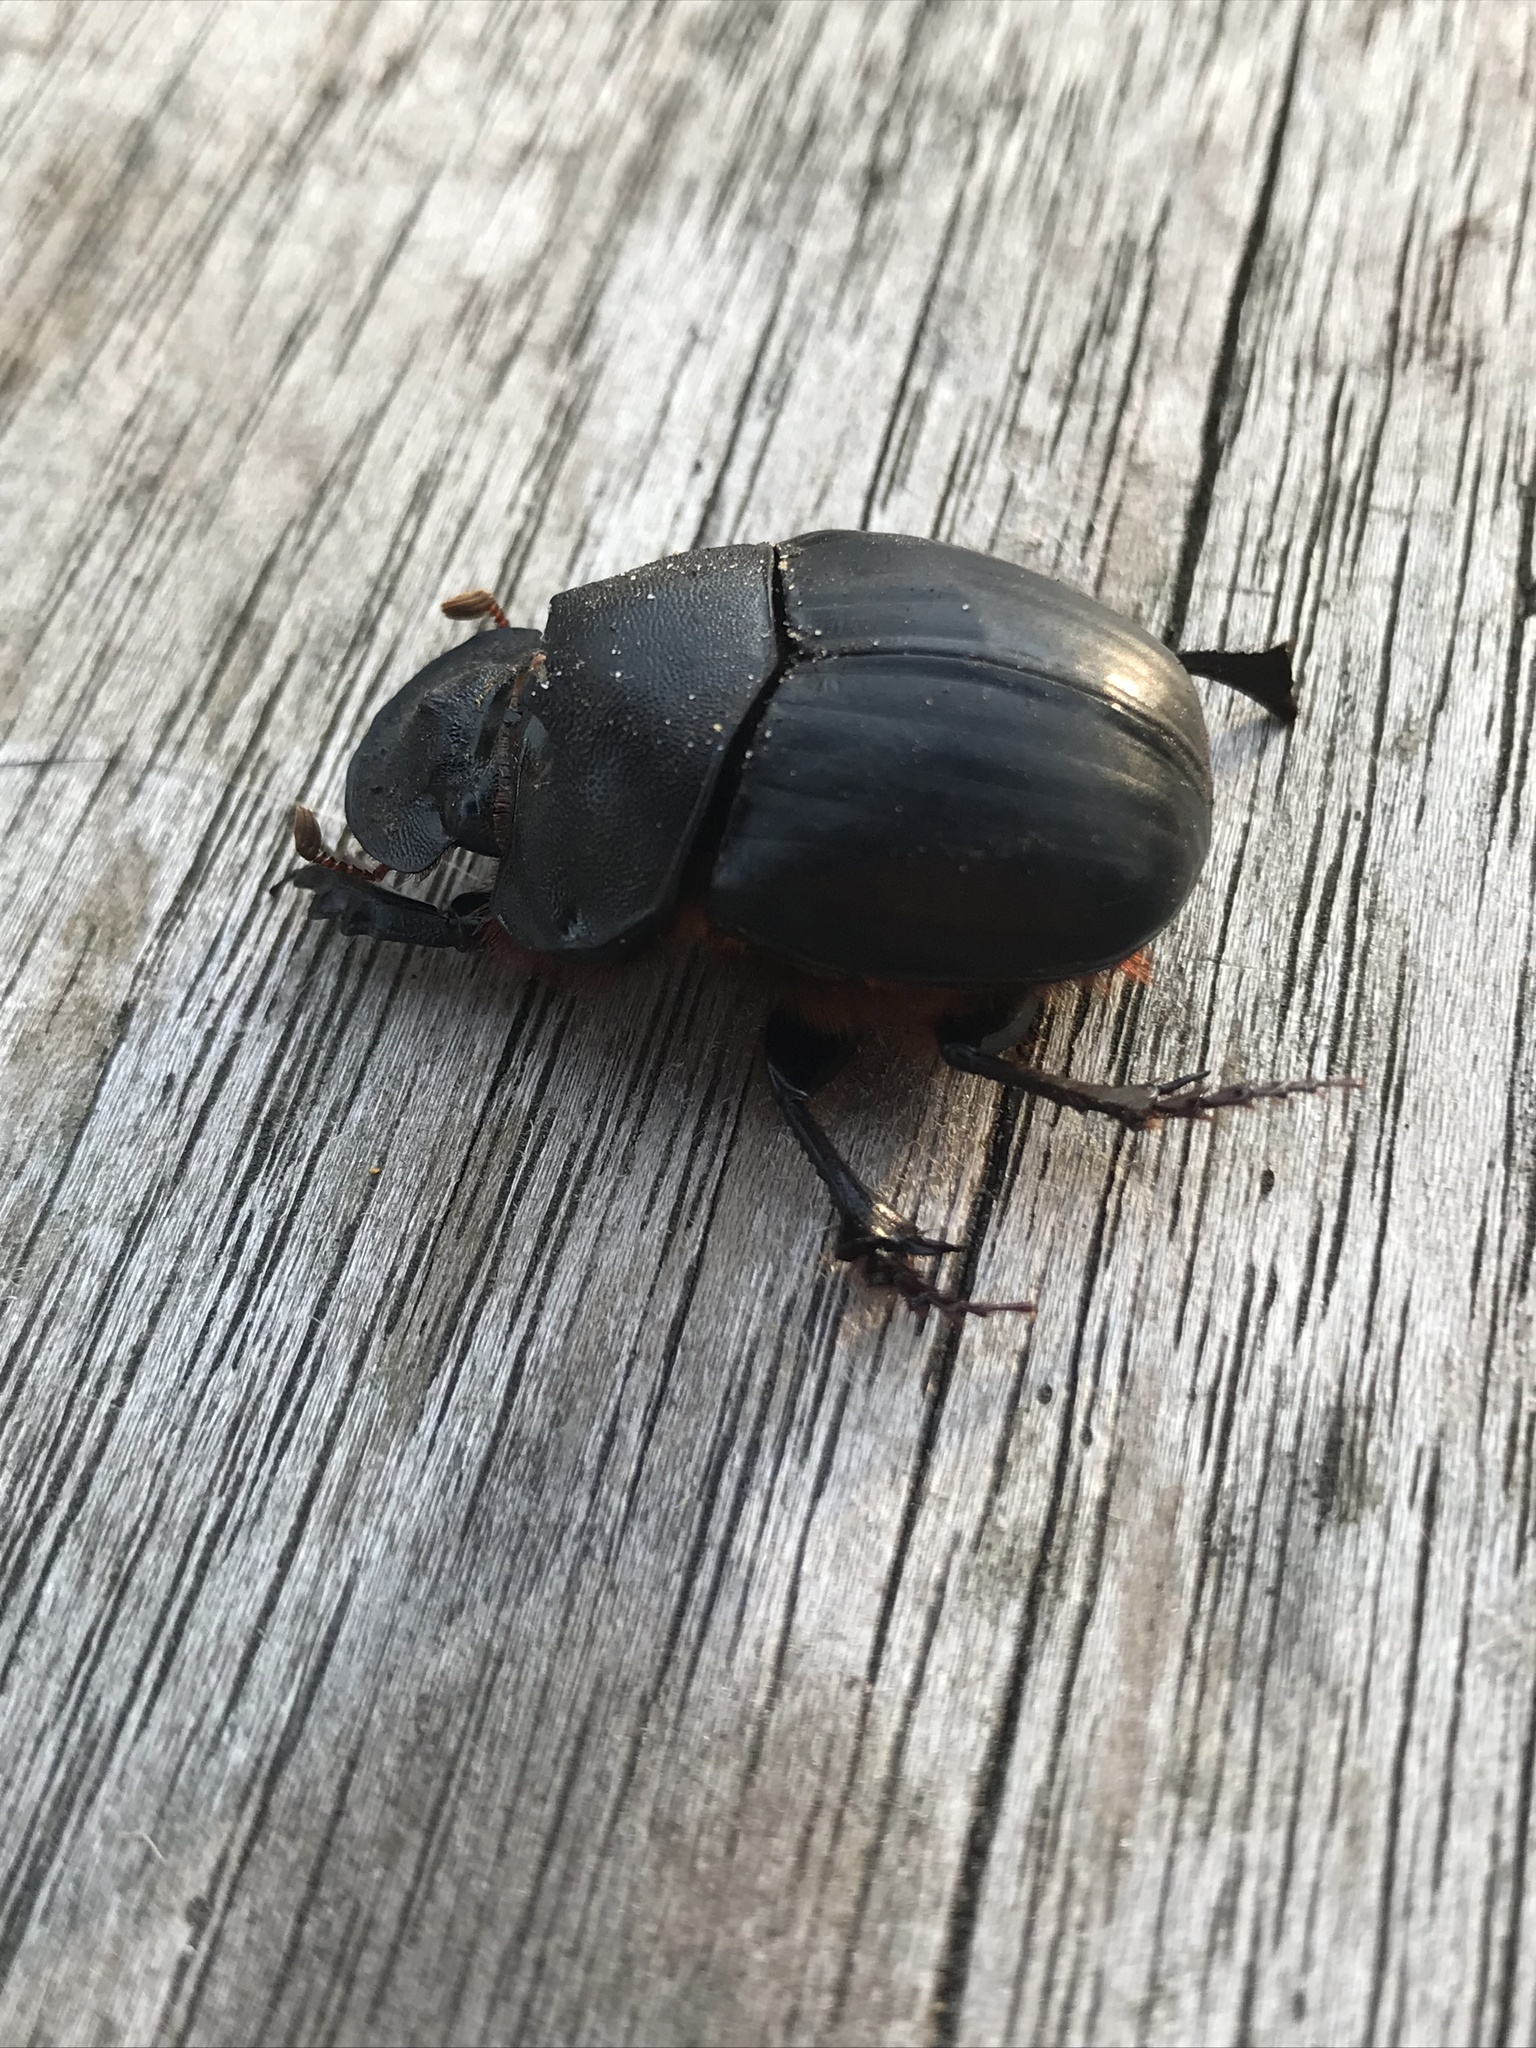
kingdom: Animalia
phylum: Arthropoda
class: Insecta
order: Coleoptera
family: Scarabaeidae
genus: Homocopris
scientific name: Homocopris achamas
